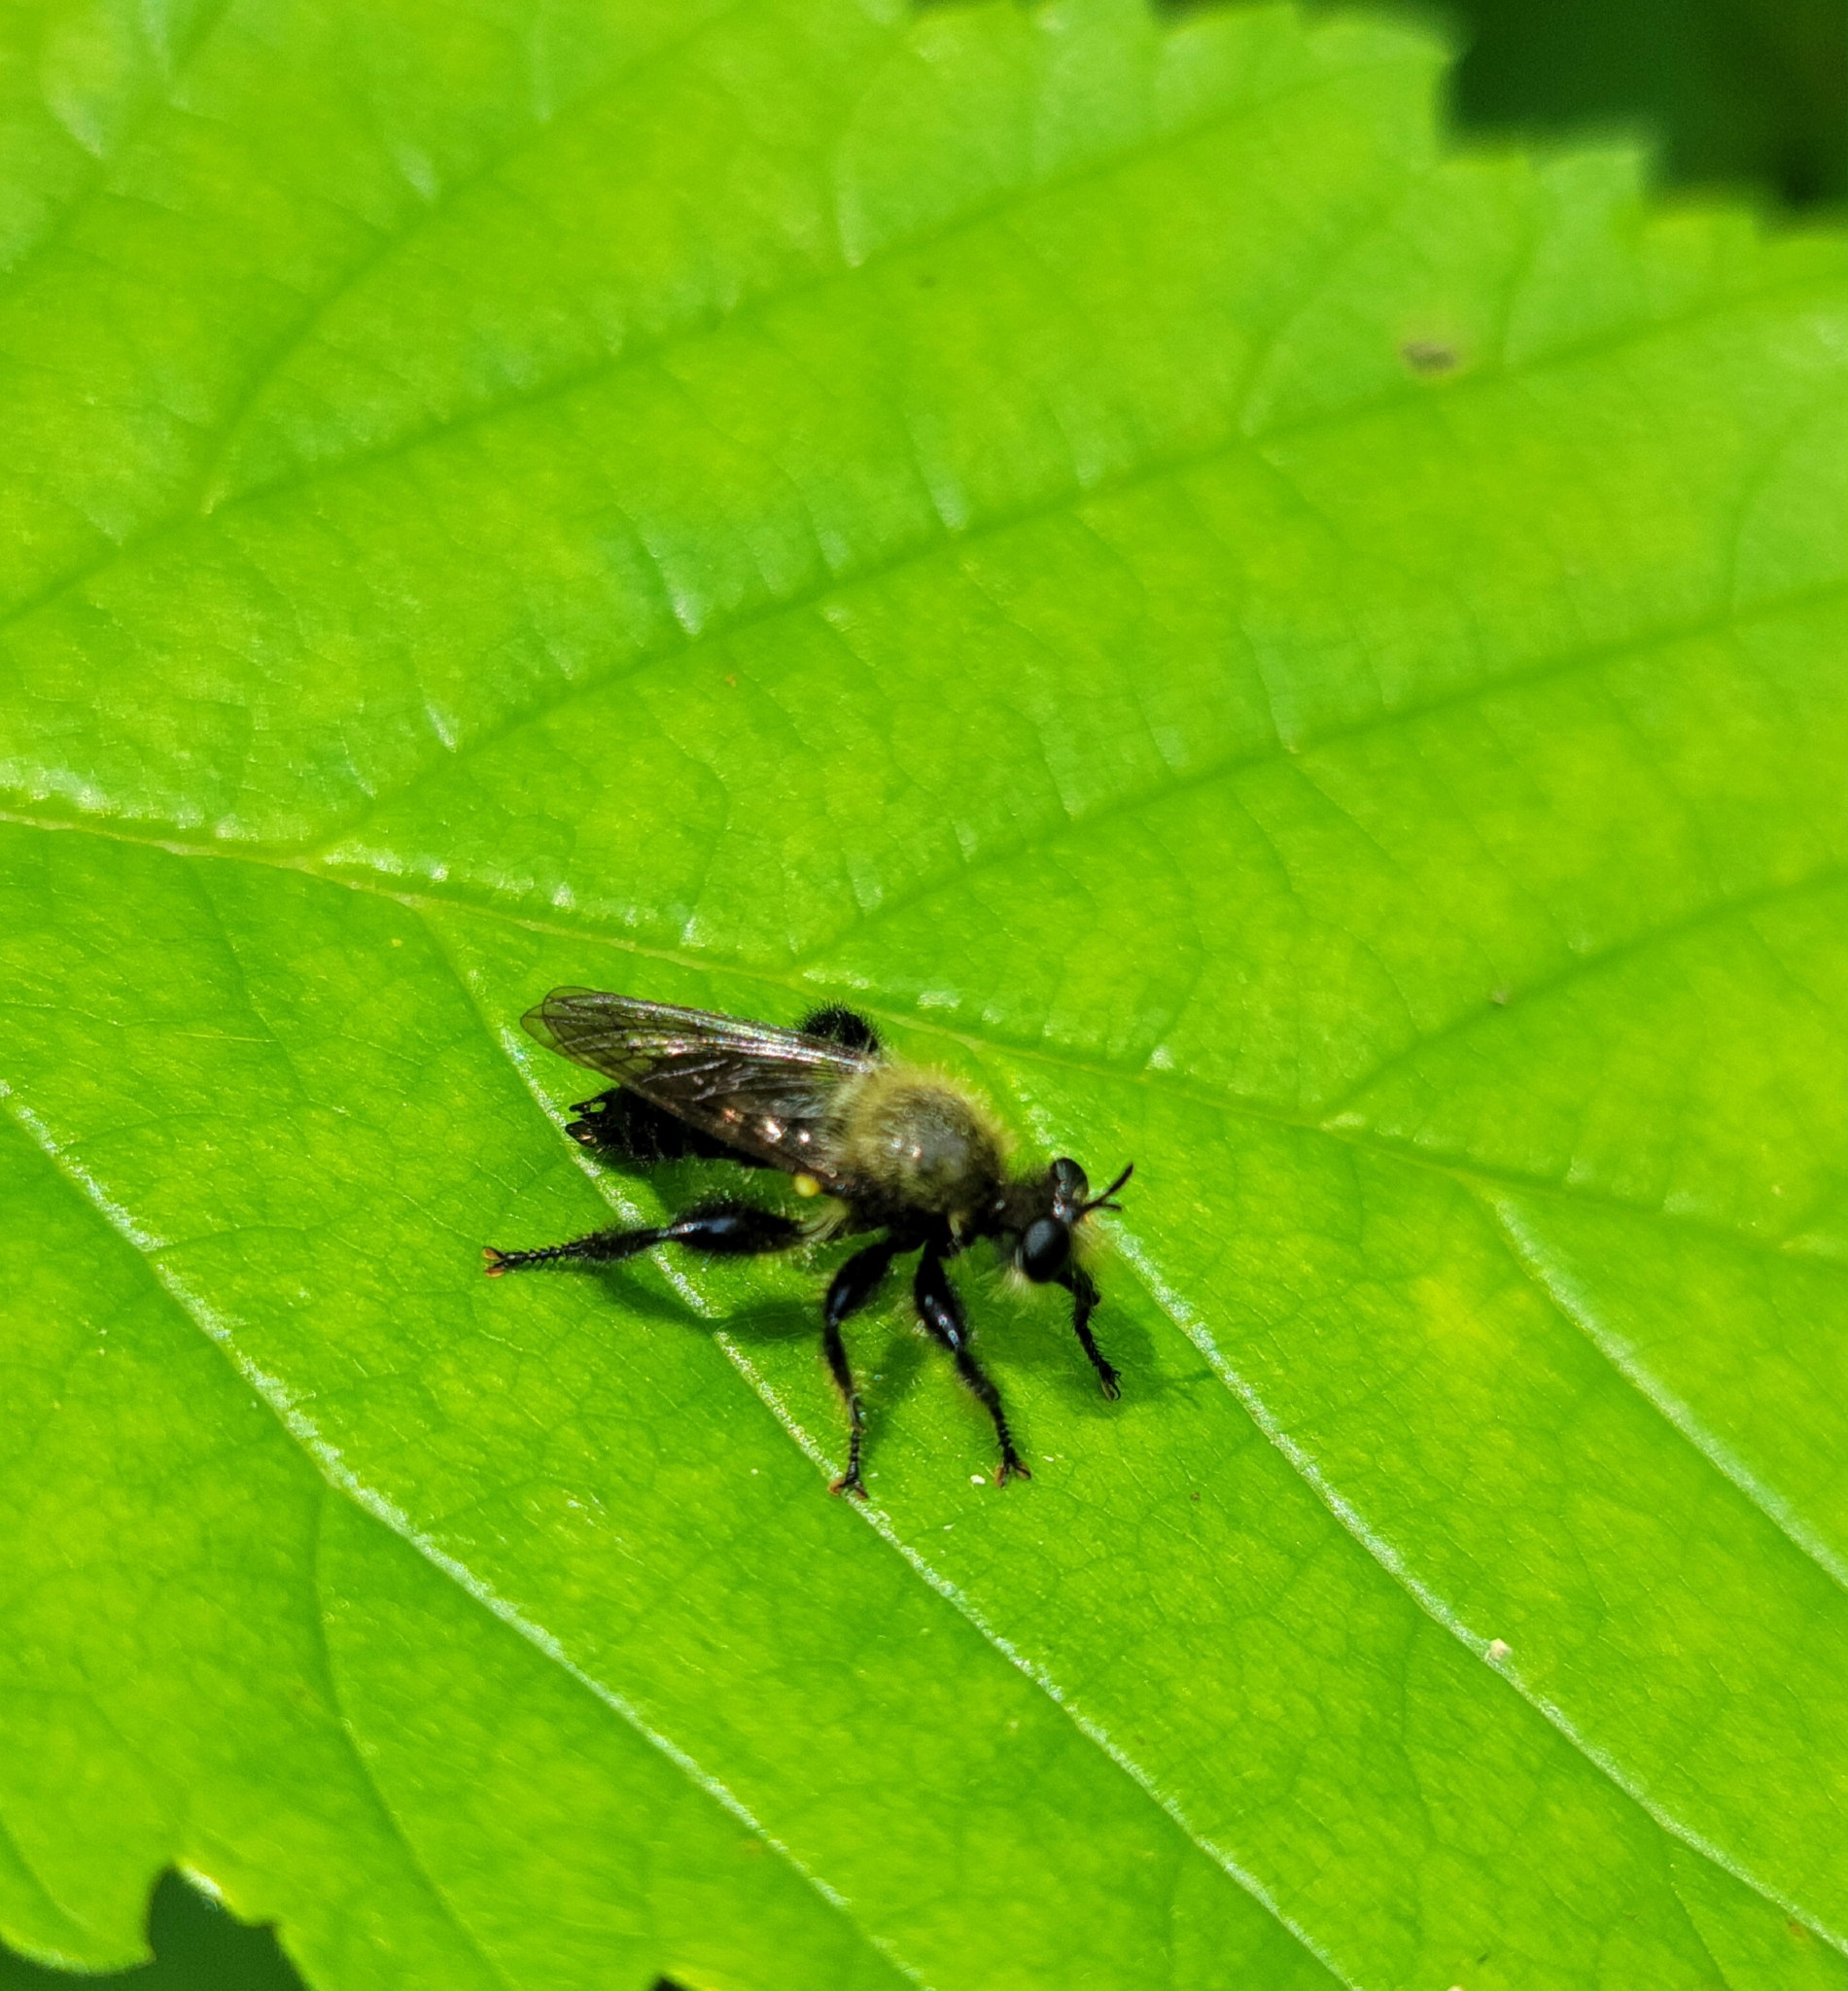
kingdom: Animalia
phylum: Arthropoda
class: Insecta
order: Diptera
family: Asilidae
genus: Laphria
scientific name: Laphria flavicollis
